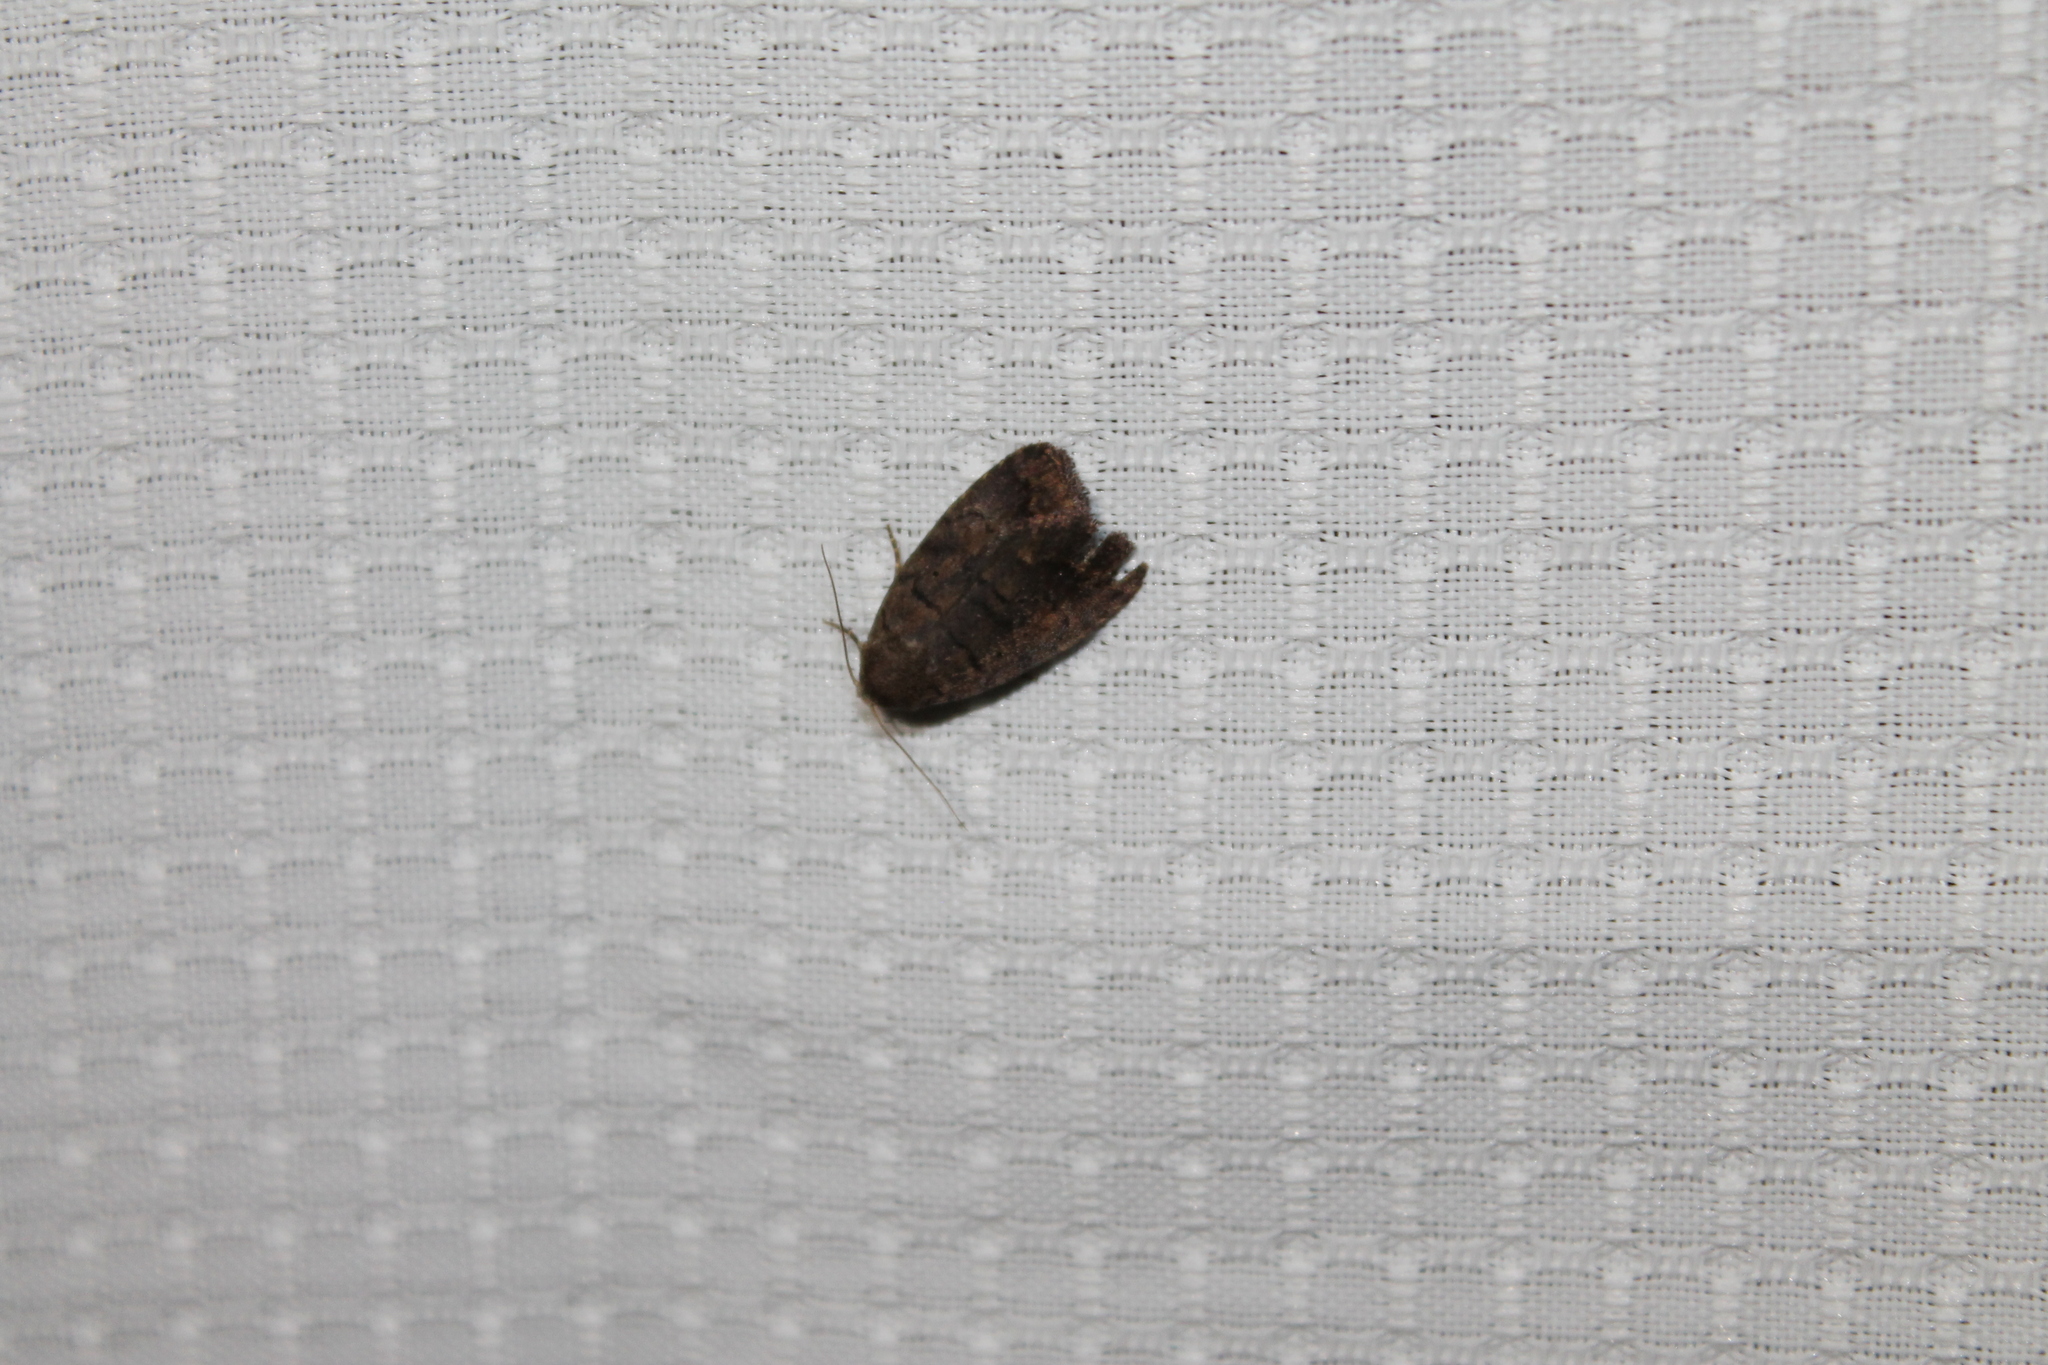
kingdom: Animalia
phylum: Arthropoda
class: Insecta
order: Lepidoptera
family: Noctuidae
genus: Athetis
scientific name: Athetis tarda
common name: Slowpoke moth
